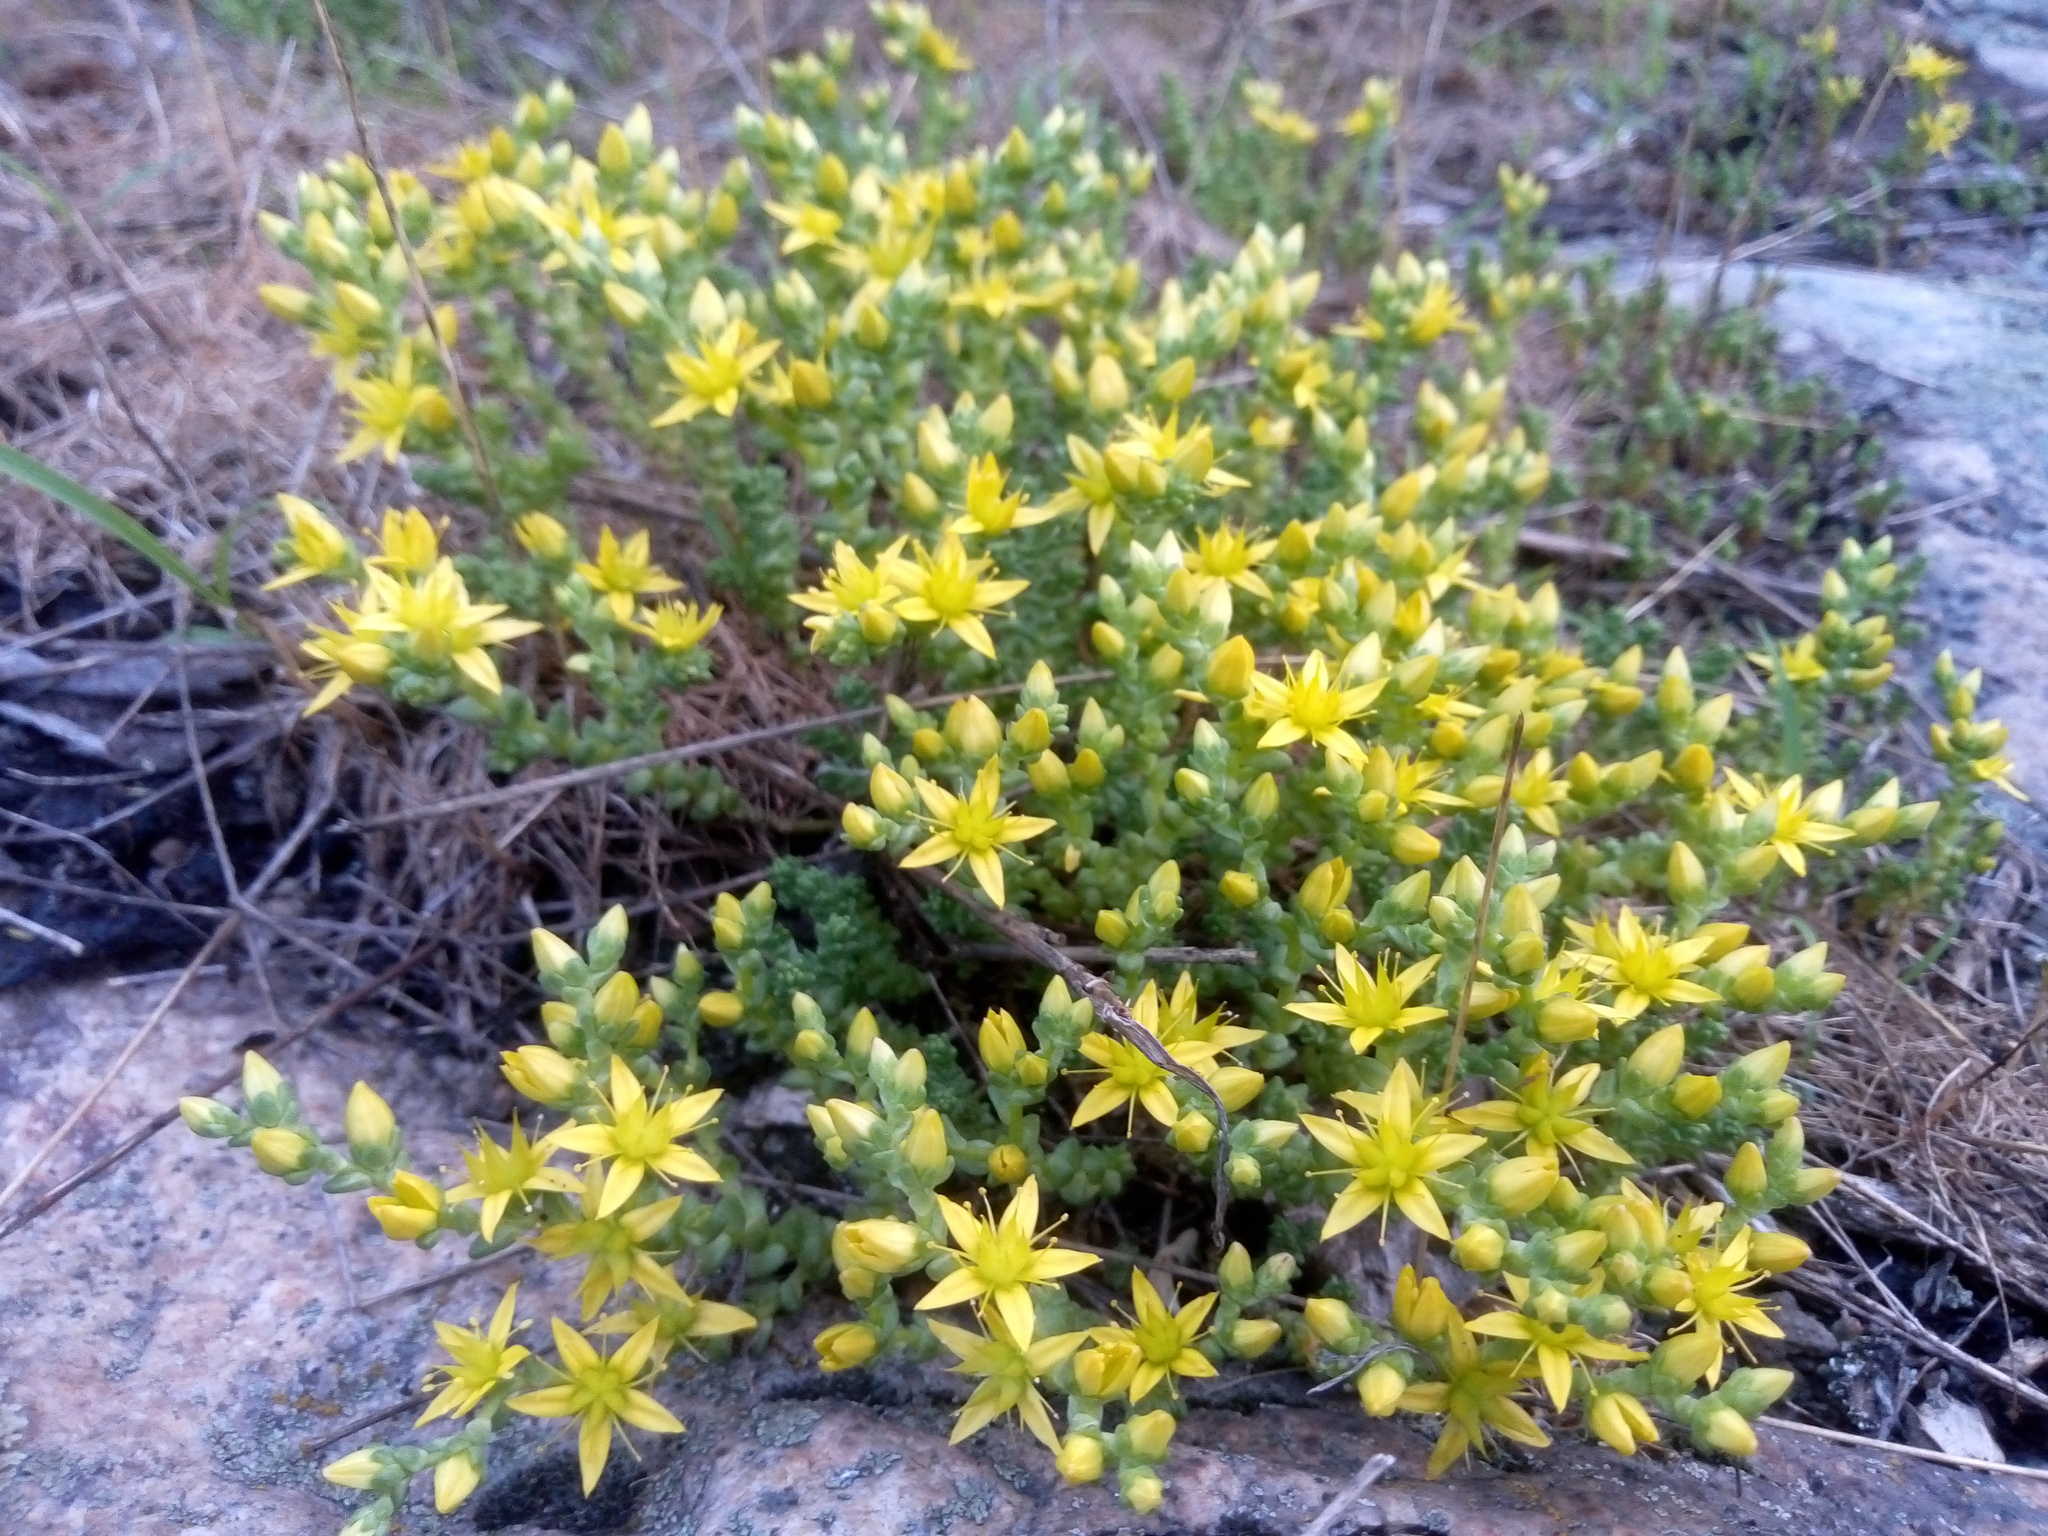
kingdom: Plantae
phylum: Tracheophyta
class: Magnoliopsida
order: Saxifragales
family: Crassulaceae
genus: Sedum
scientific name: Sedum acre
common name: Biting stonecrop
